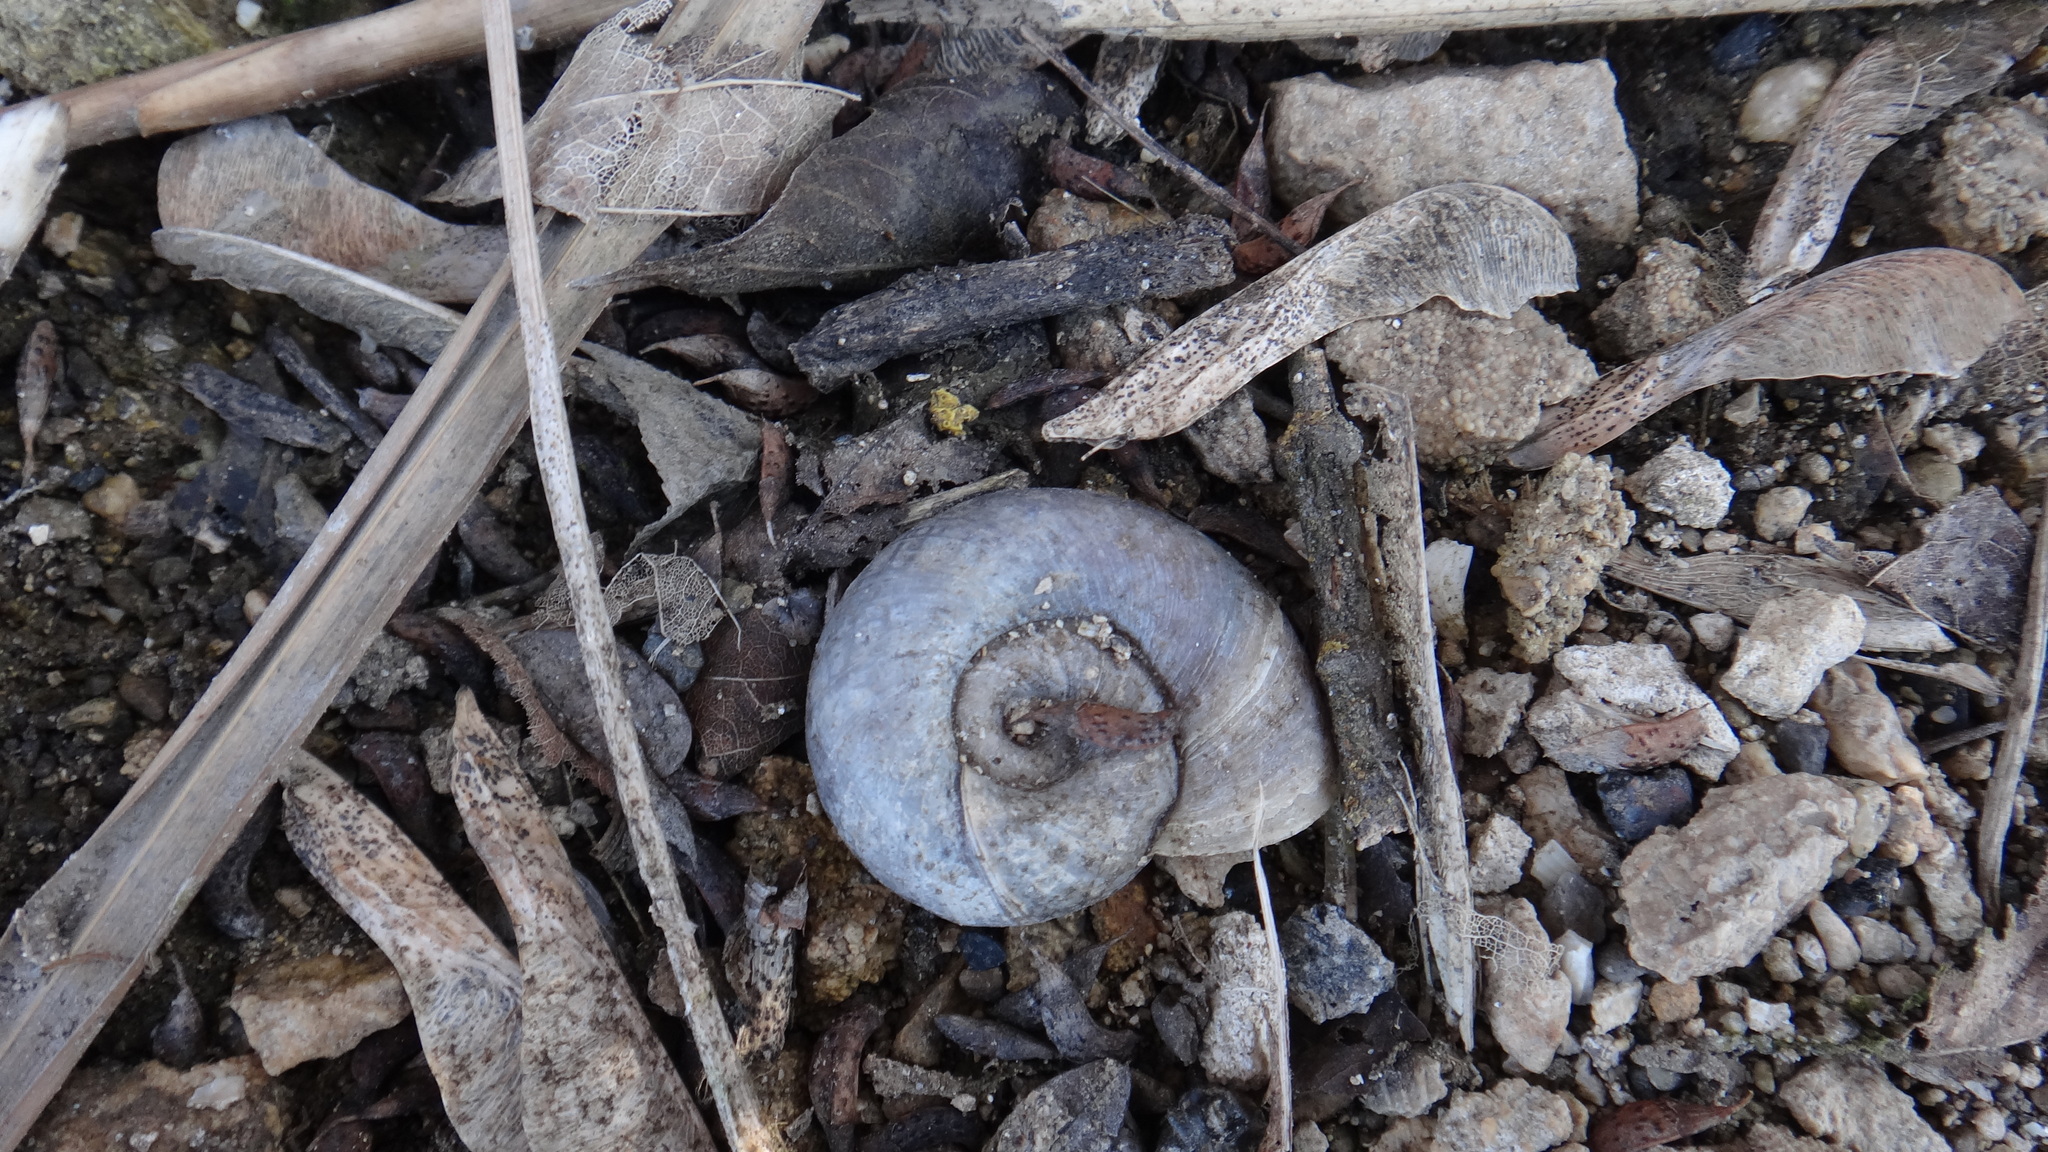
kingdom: Animalia
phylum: Mollusca
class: Gastropoda
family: Planorbidae
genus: Planorbarius
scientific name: Planorbarius corneus
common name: Great ramshorn
